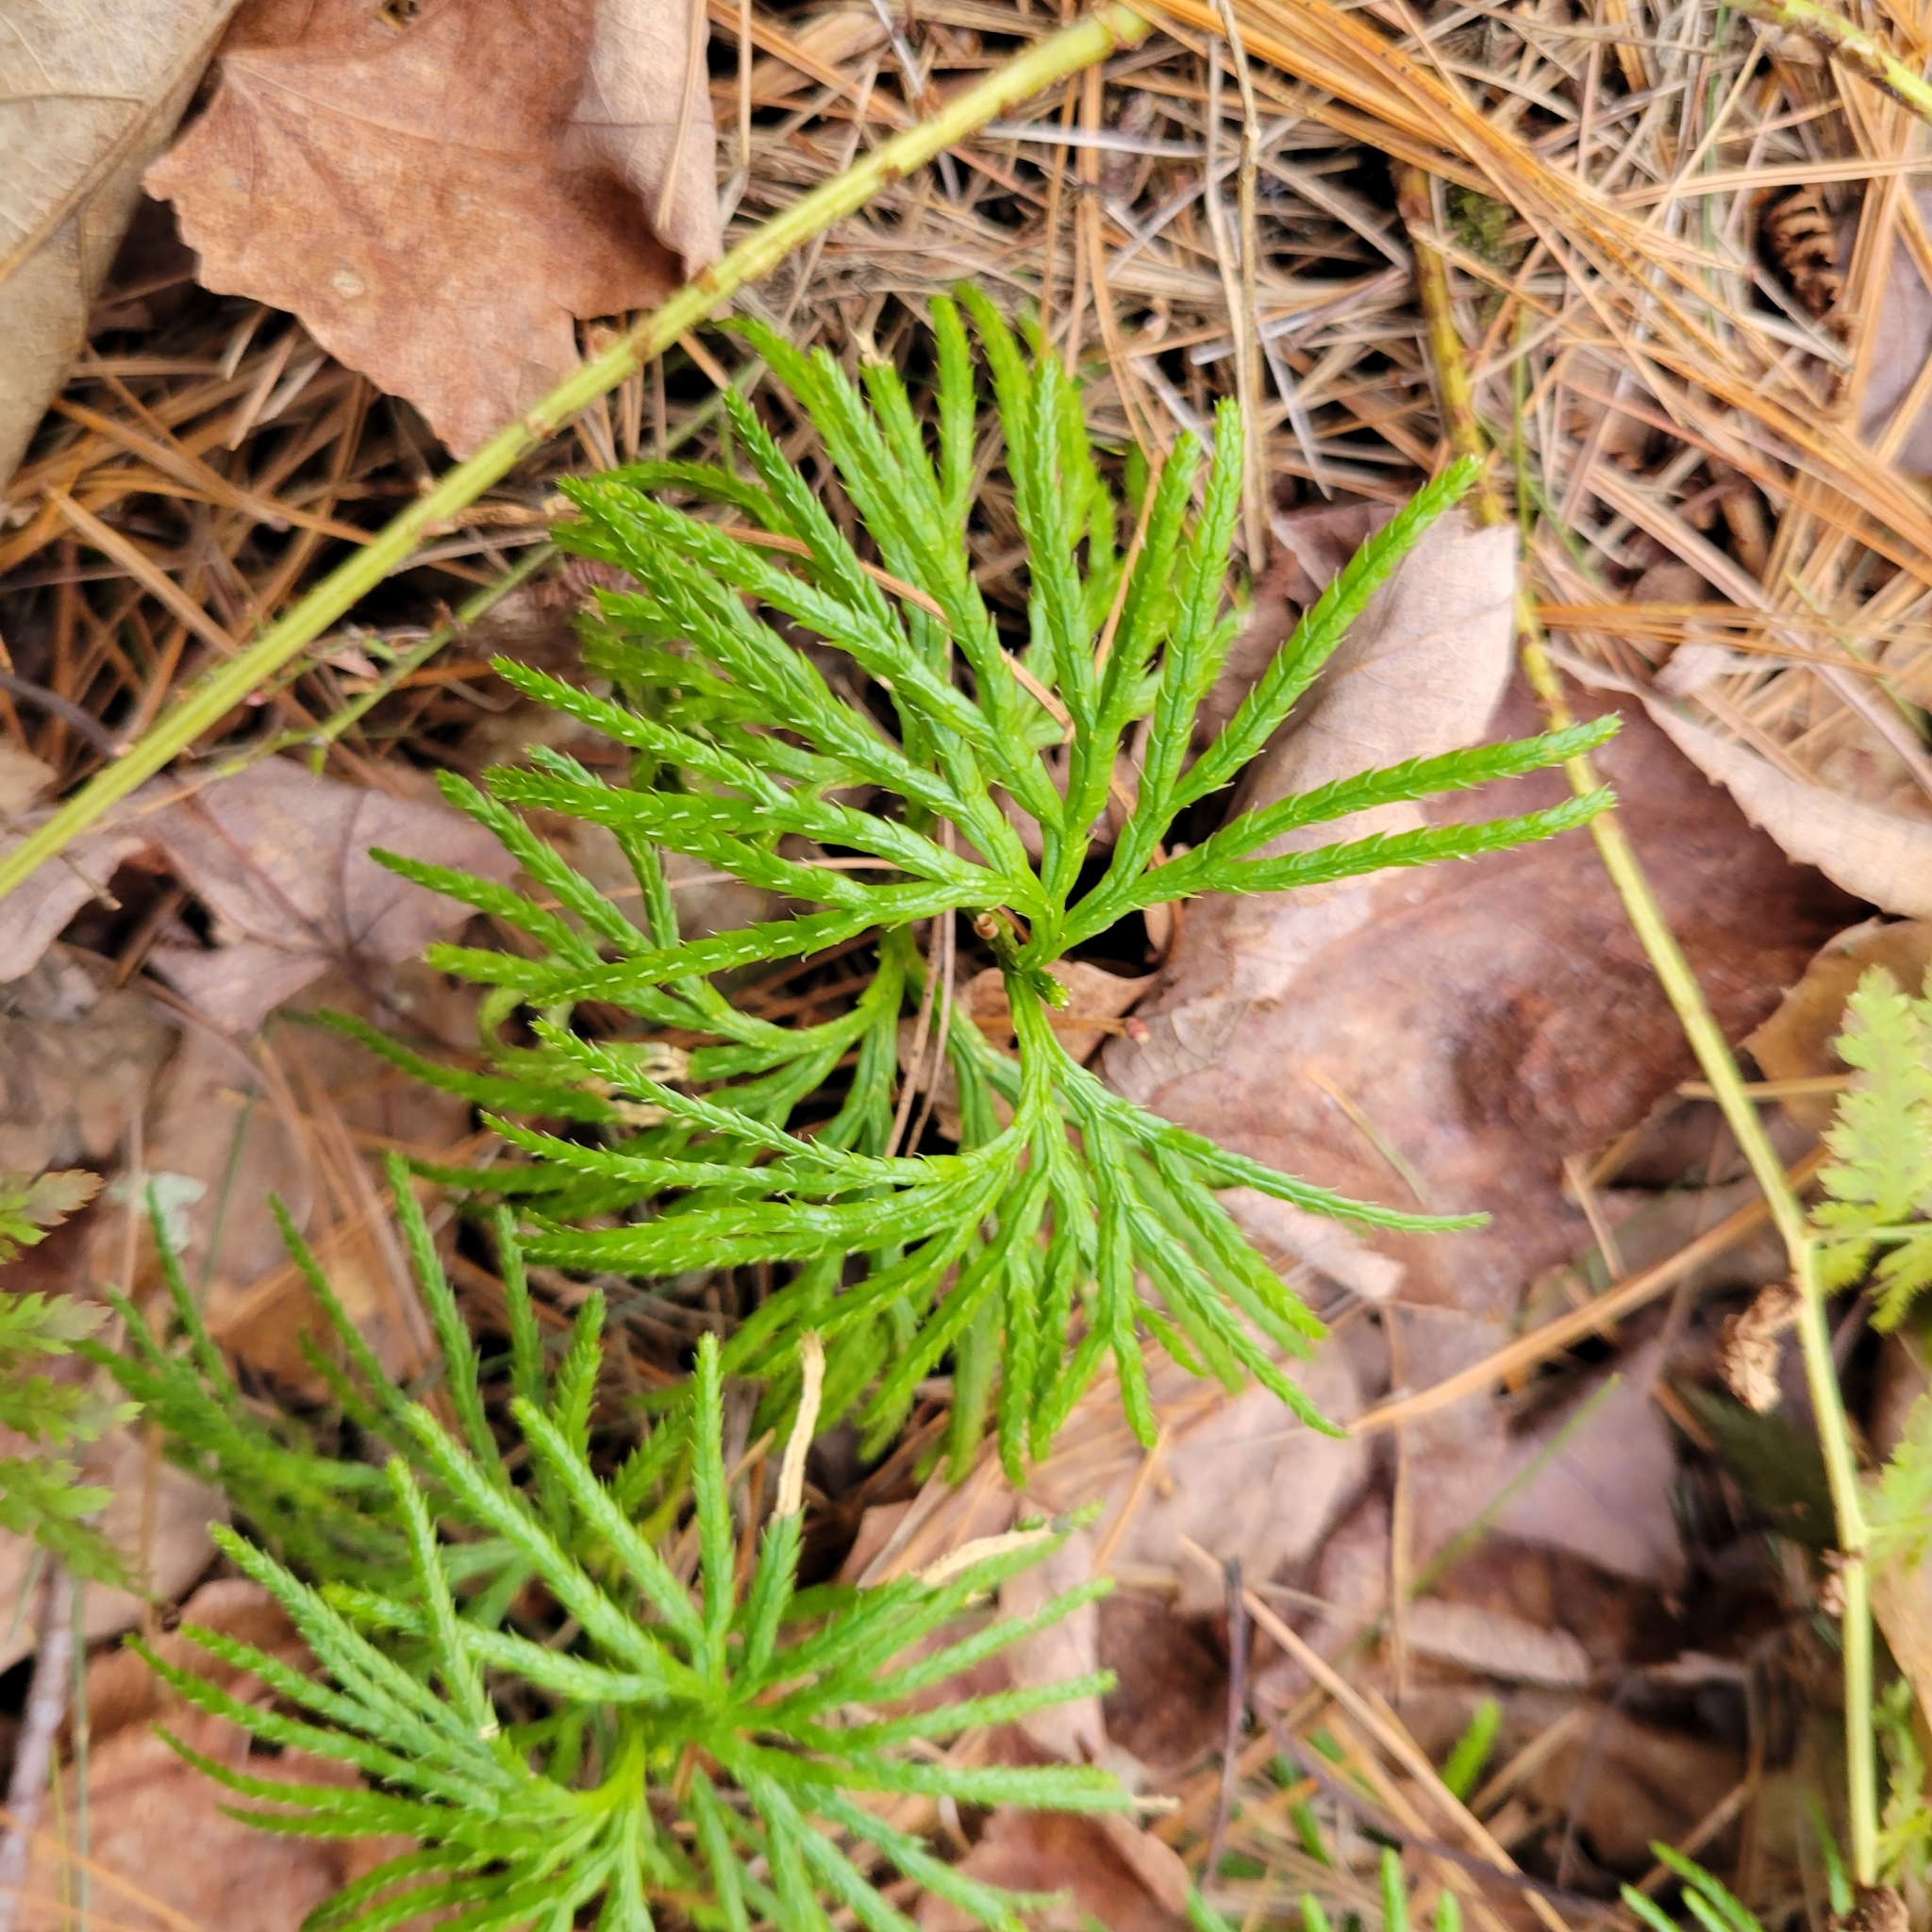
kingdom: Plantae
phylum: Tracheophyta
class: Lycopodiopsida
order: Lycopodiales
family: Lycopodiaceae
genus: Diphasiastrum
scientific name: Diphasiastrum digitatum
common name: Southern running-pine
